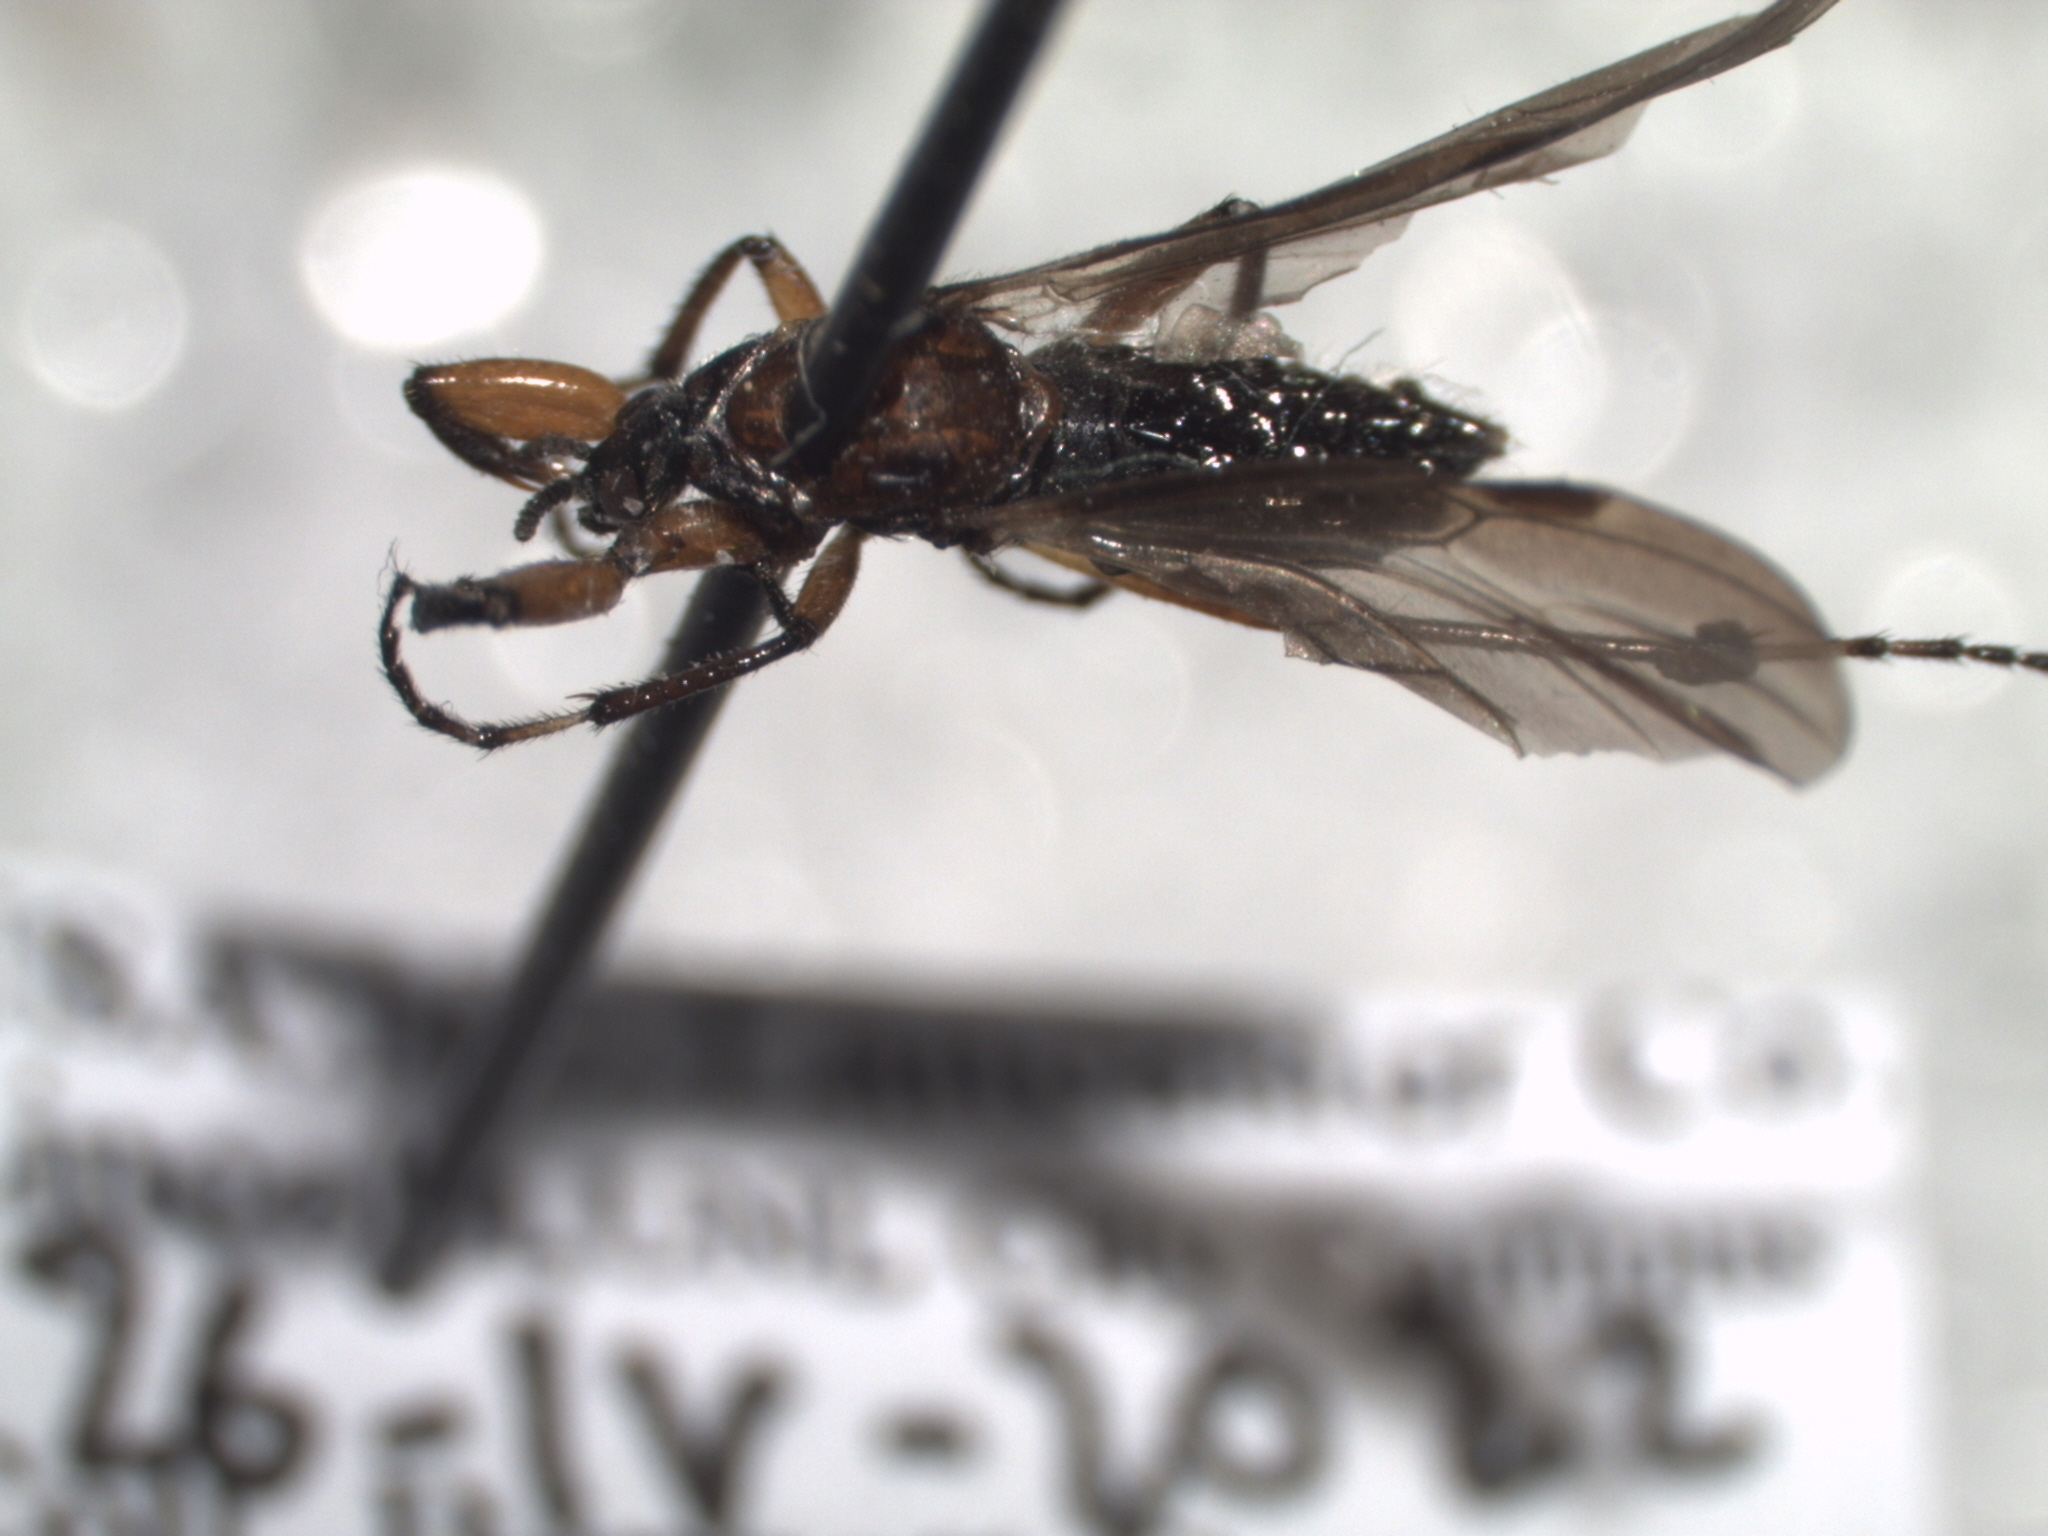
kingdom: Animalia
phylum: Arthropoda
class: Insecta
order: Diptera
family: Bibionidae
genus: Bibio
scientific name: Bibio articulatus
